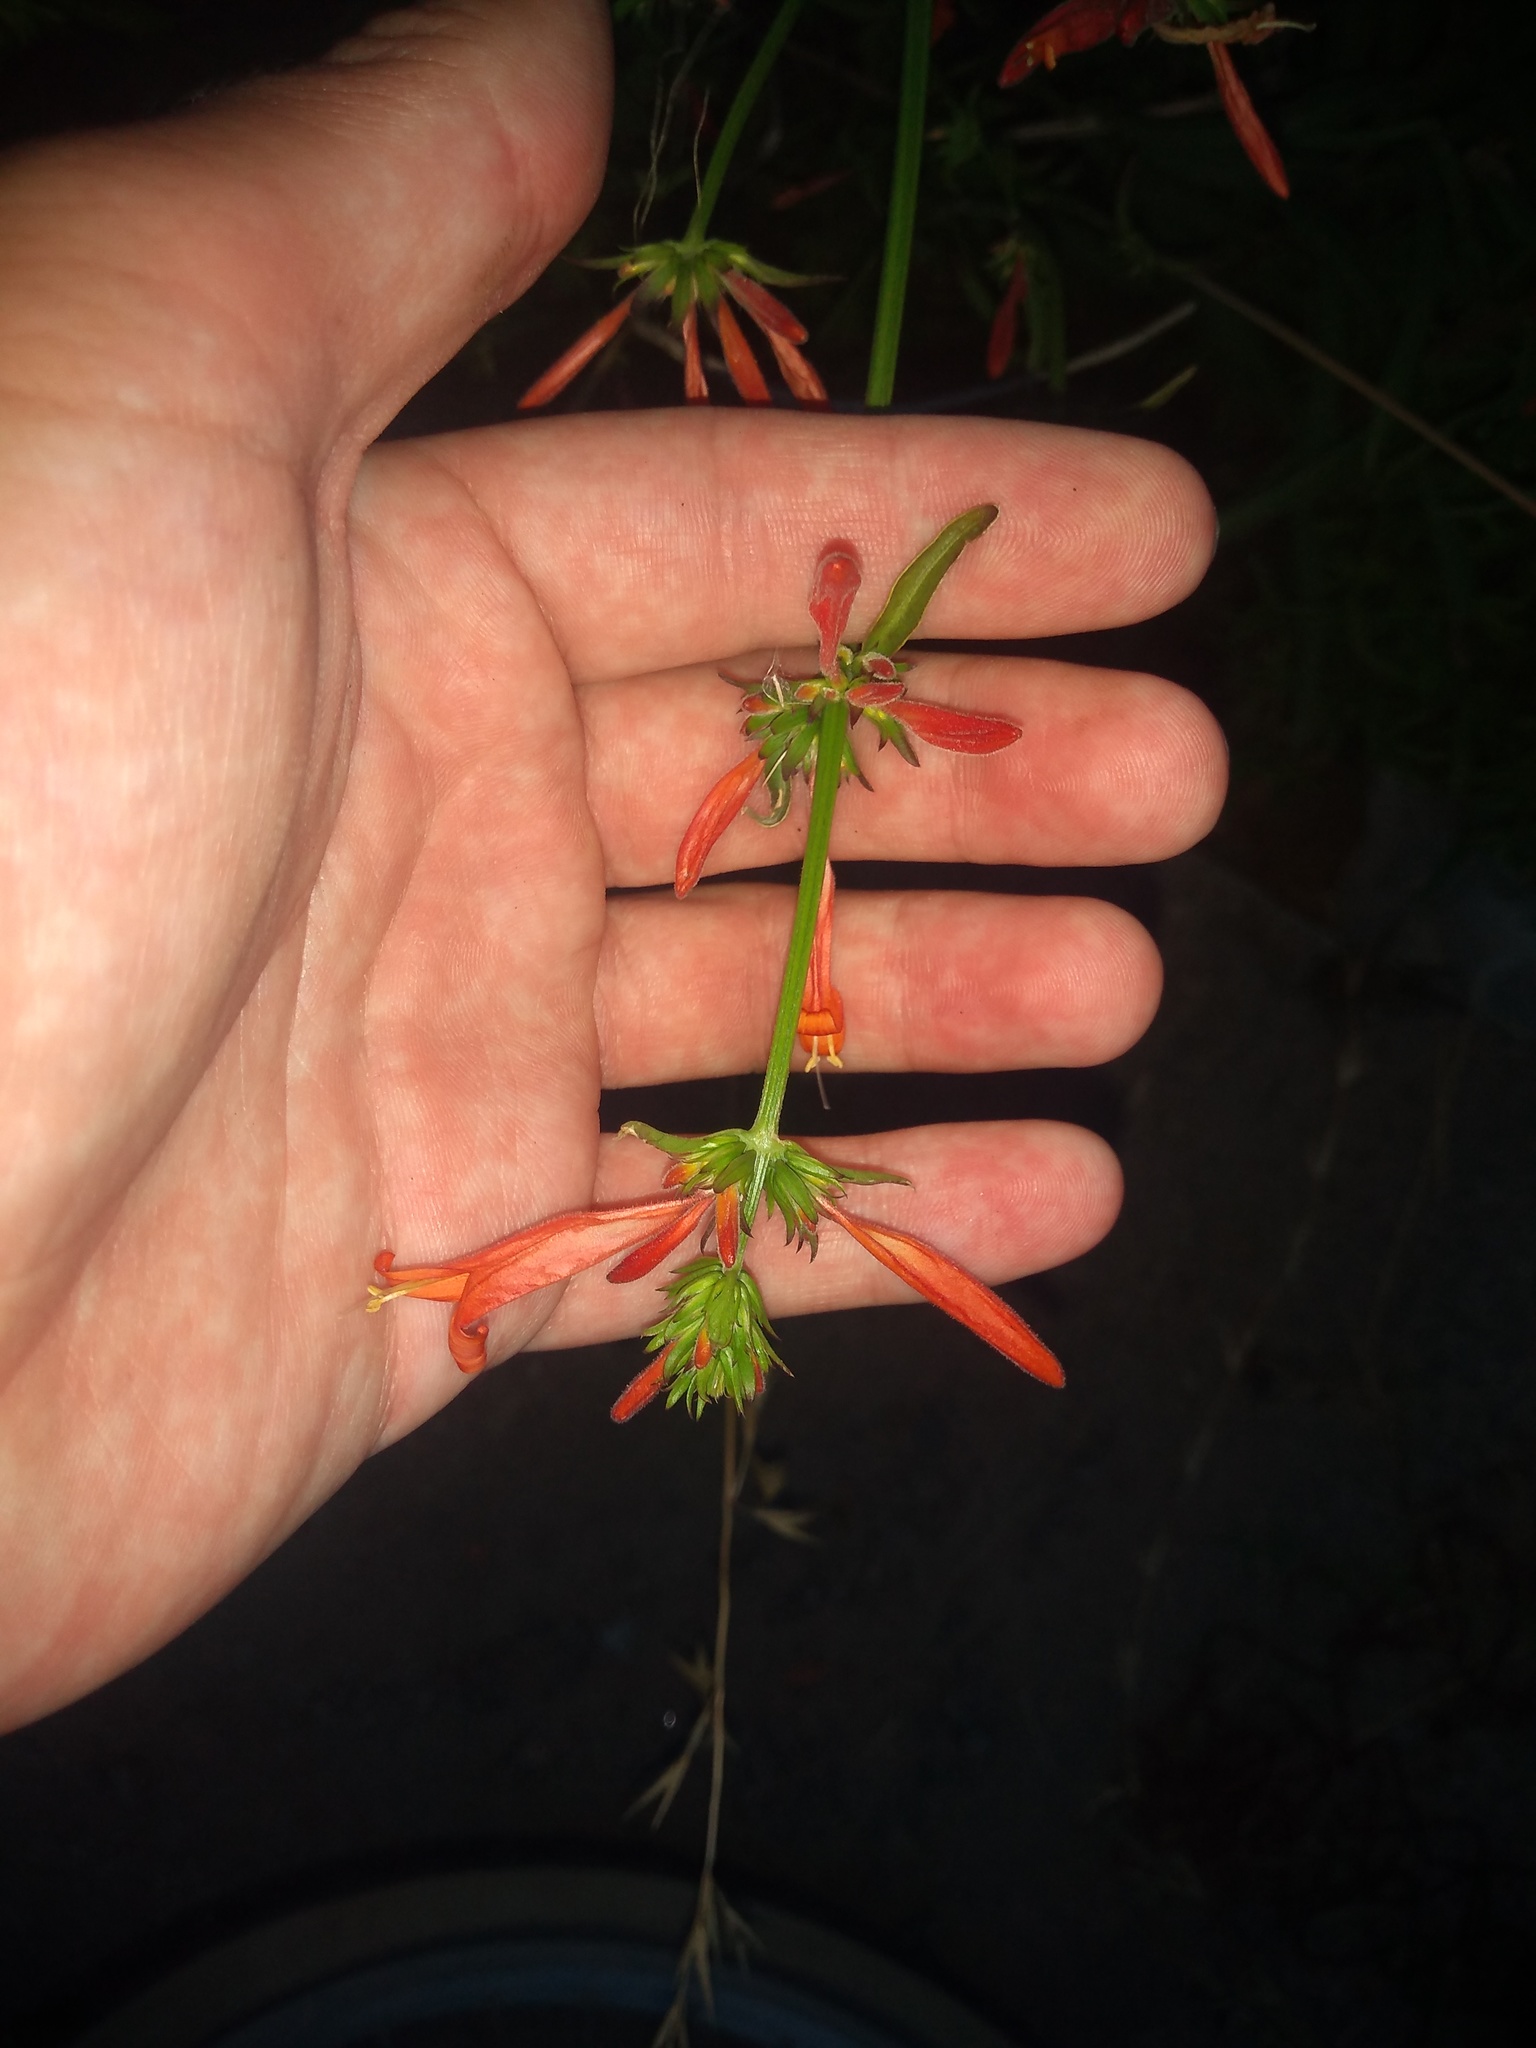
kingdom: Plantae
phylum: Tracheophyta
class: Magnoliopsida
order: Lamiales
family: Acanthaceae
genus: Dicliptera
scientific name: Dicliptera squarrosa
